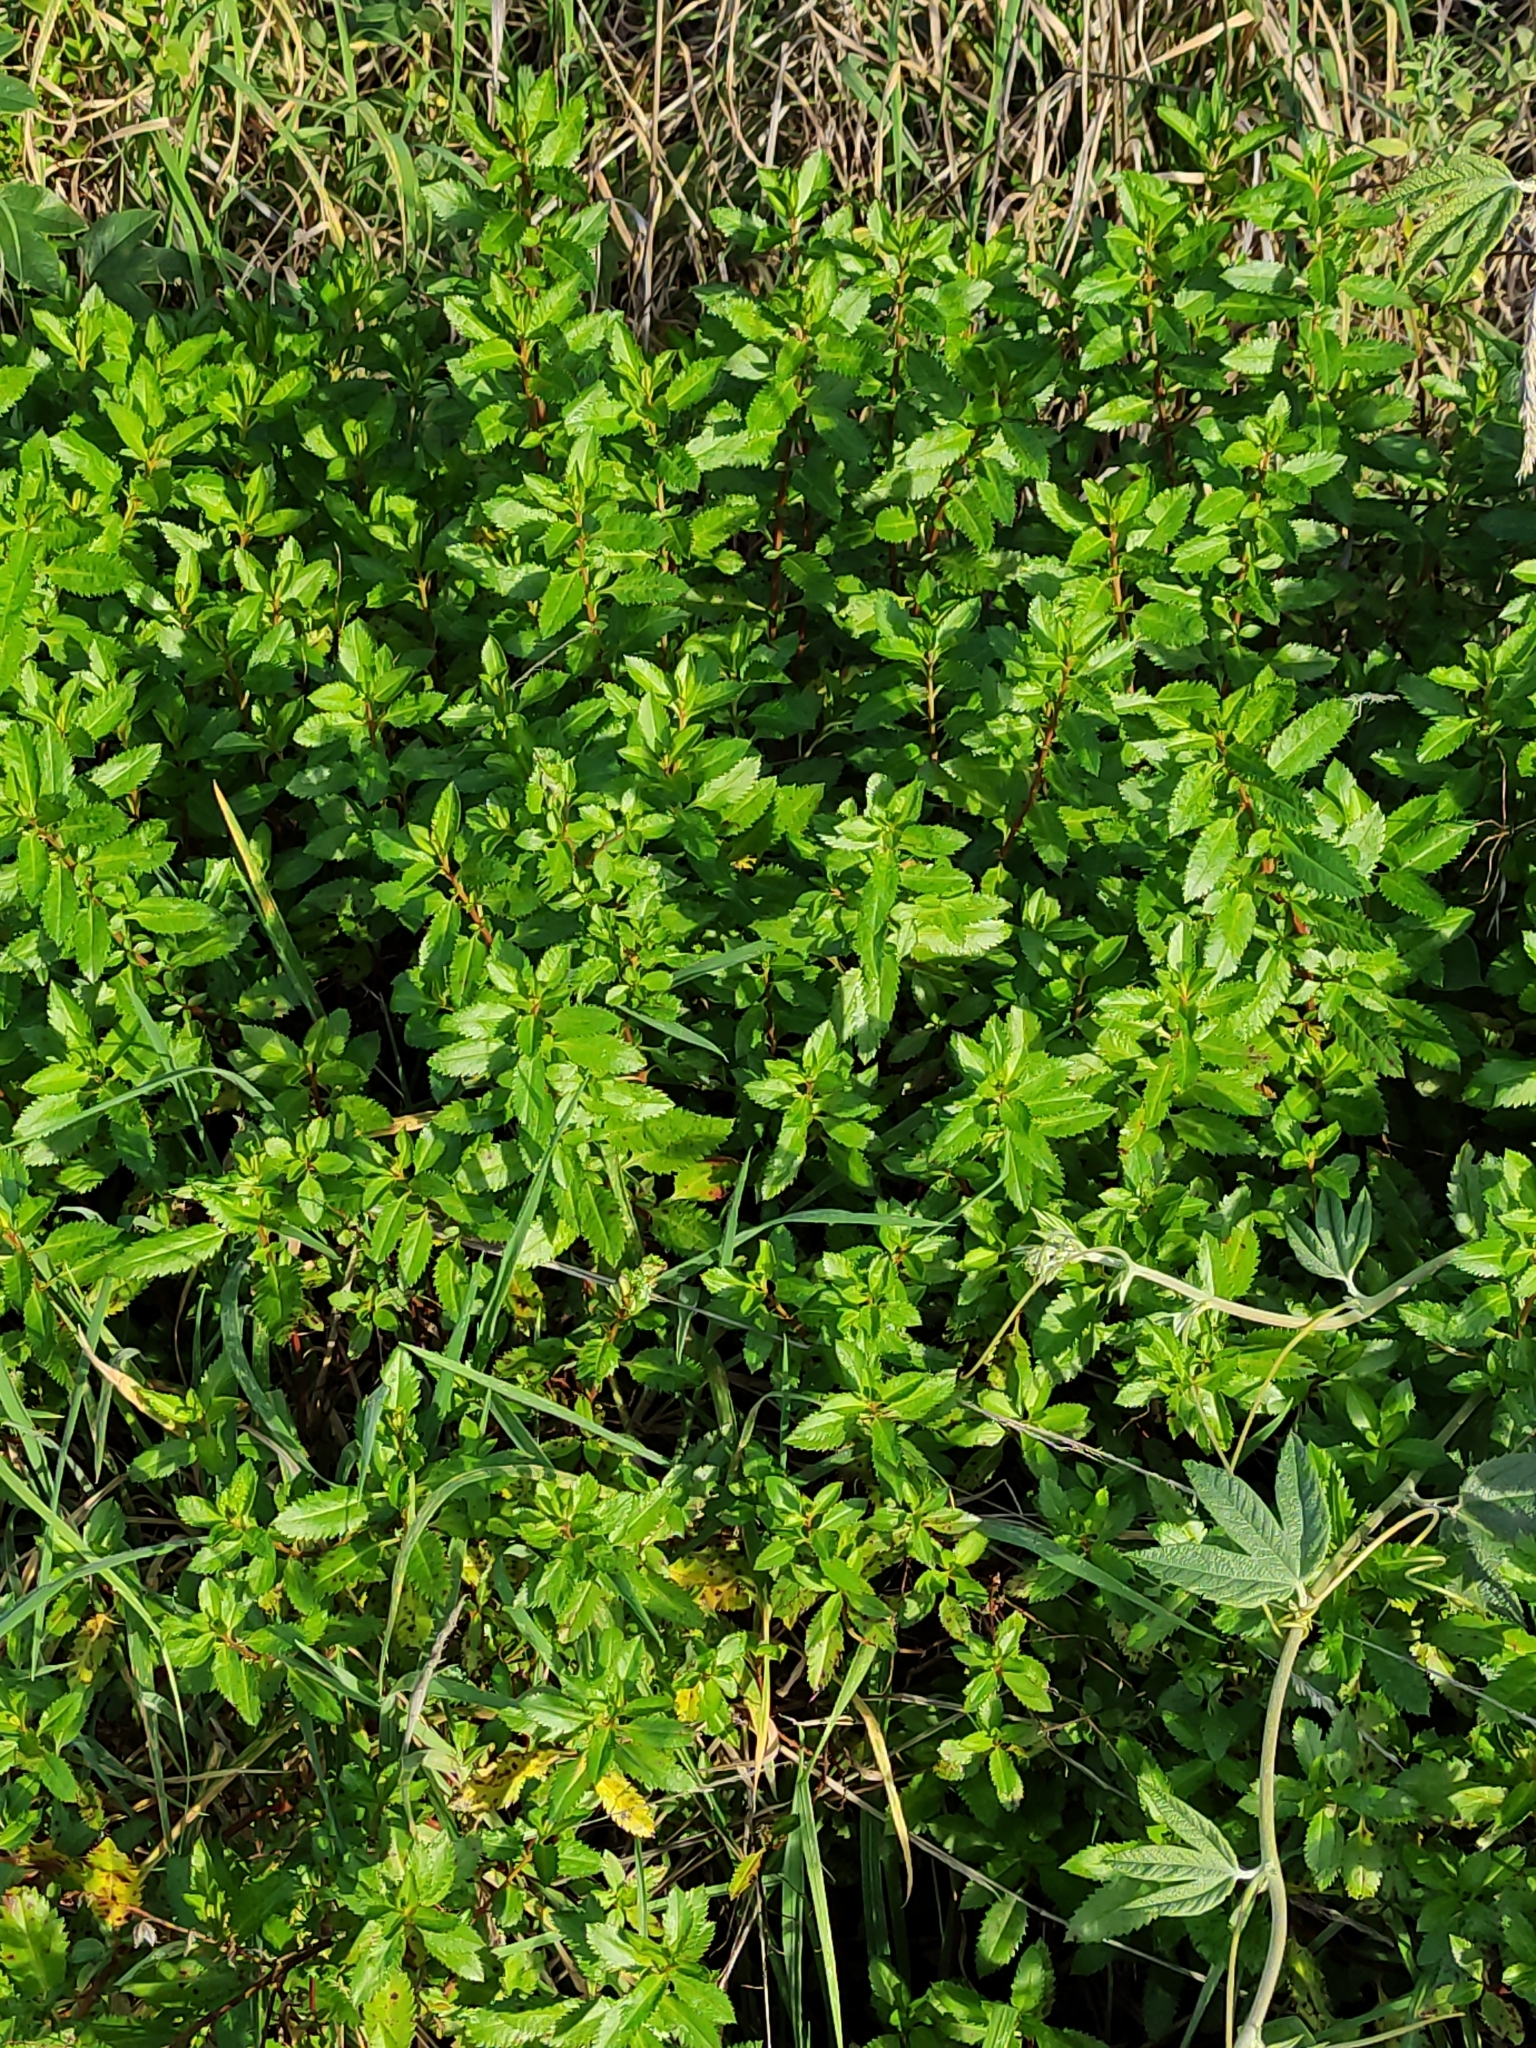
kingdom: Plantae
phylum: Tracheophyta
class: Magnoliopsida
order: Saxifragales
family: Haloragaceae
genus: Haloragis
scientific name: Haloragis erecta
